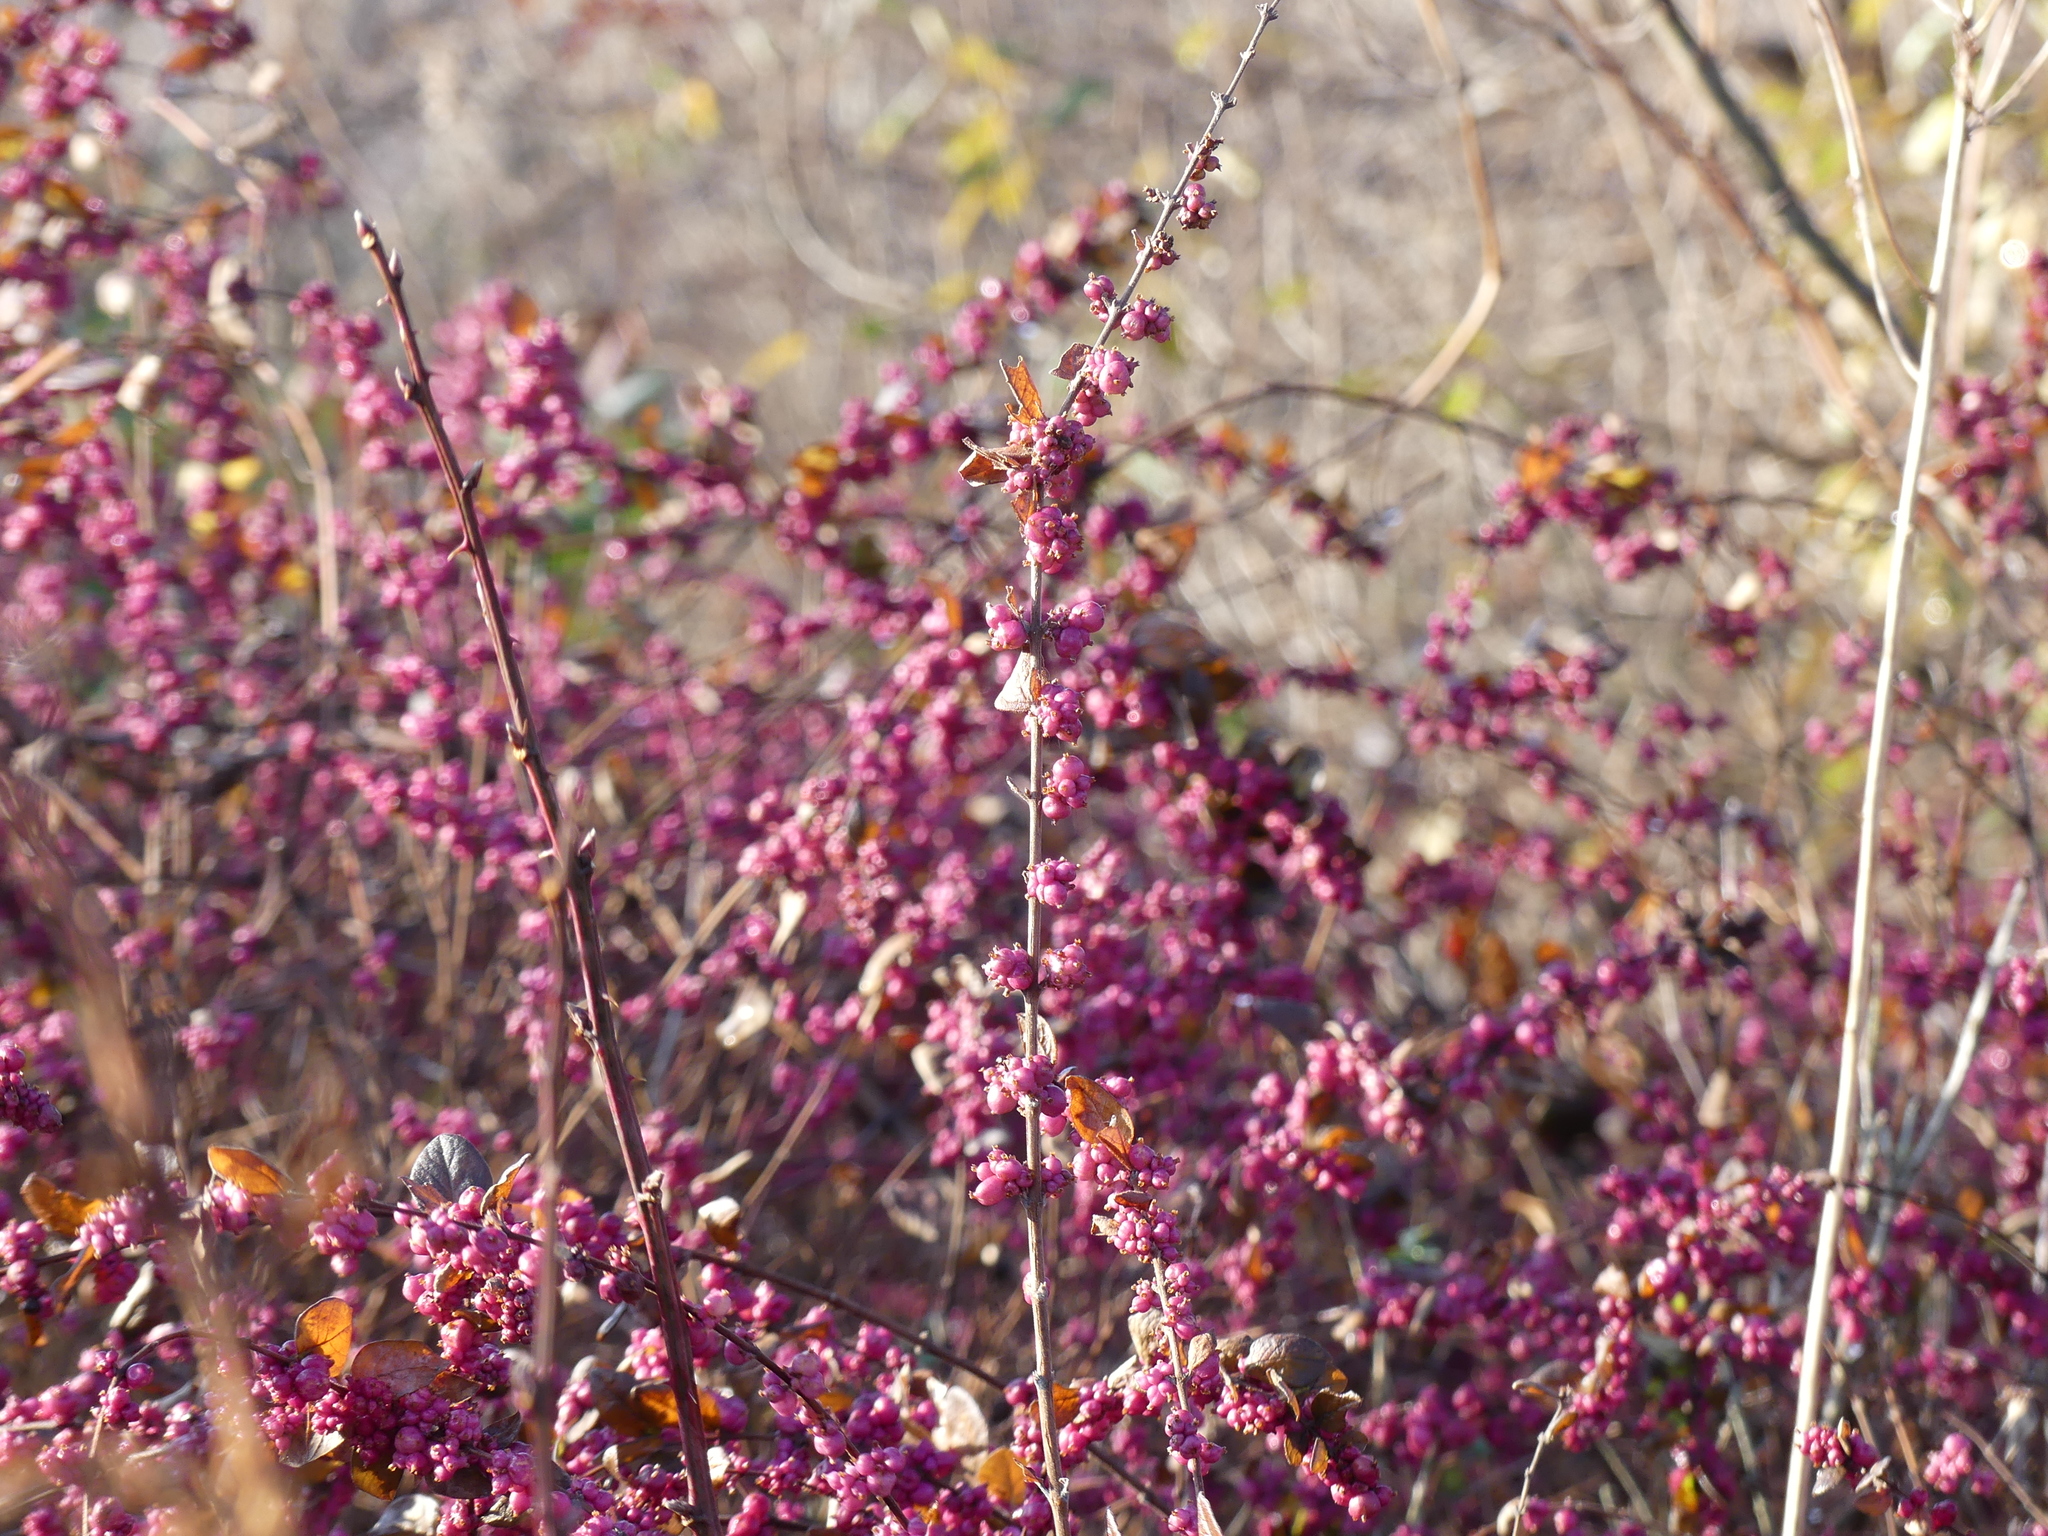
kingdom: Plantae
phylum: Tracheophyta
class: Magnoliopsida
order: Dipsacales
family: Caprifoliaceae
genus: Symphoricarpos
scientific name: Symphoricarpos orbiculatus
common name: Coralberry
